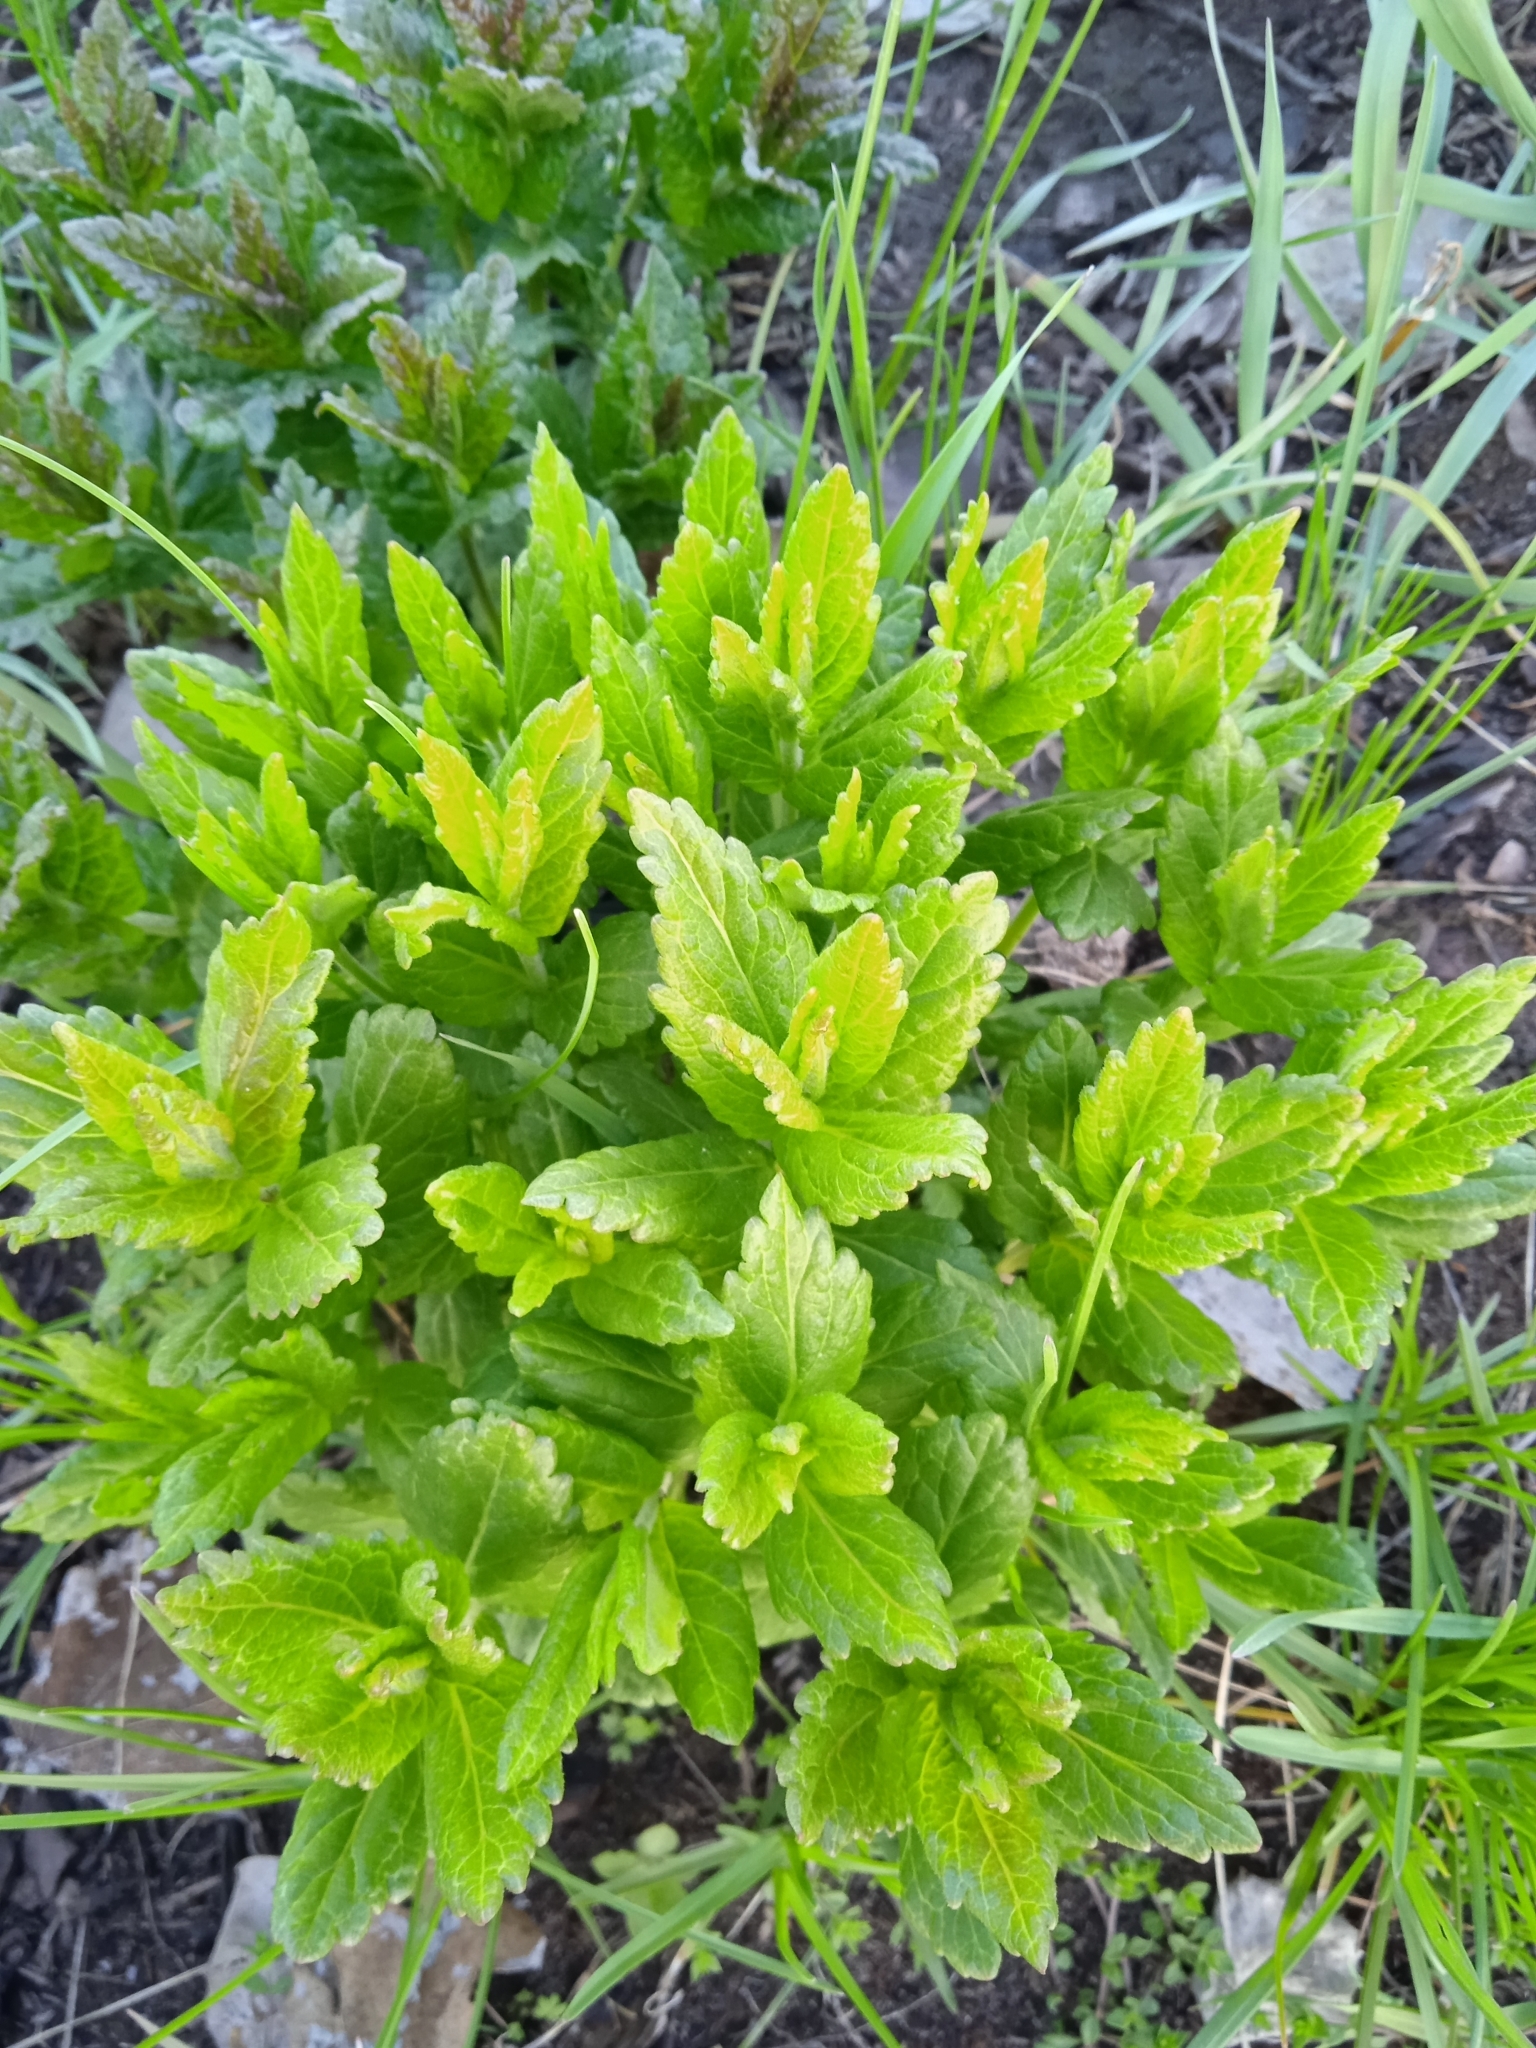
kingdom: Plantae
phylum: Tracheophyta
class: Magnoliopsida
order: Lamiales
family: Plantaginaceae
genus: Veronica
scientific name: Veronica teucrium
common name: Large speedwell
